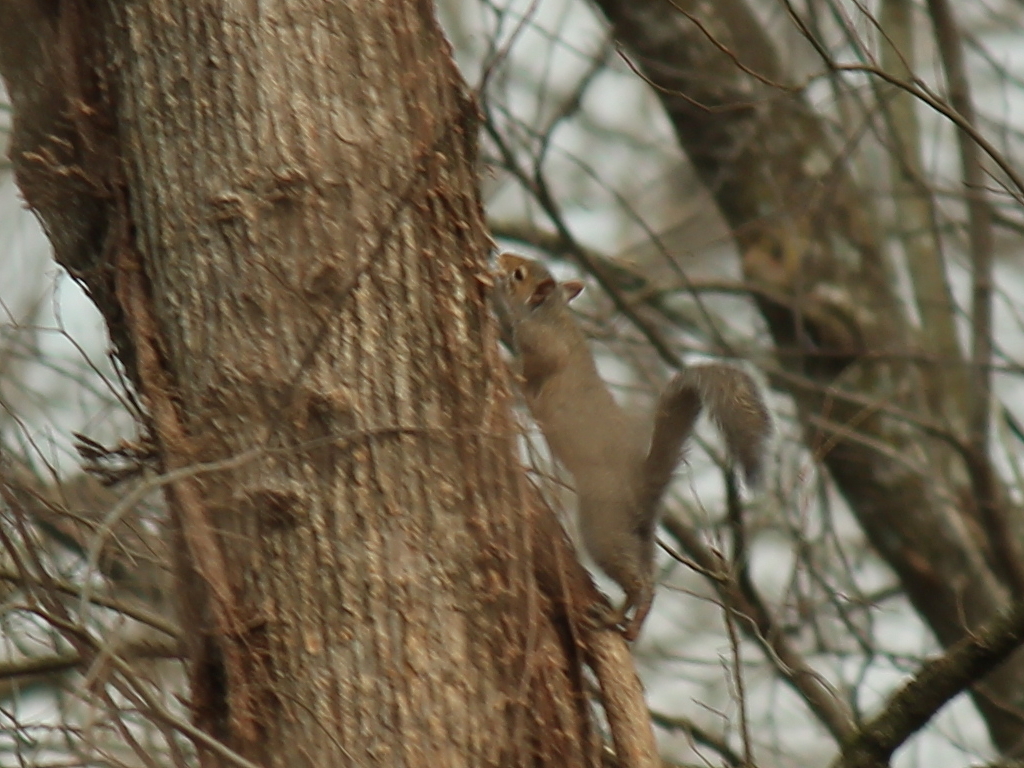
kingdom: Animalia
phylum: Chordata
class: Mammalia
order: Rodentia
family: Sciuridae
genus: Sciurus
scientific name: Sciurus carolinensis
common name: Eastern gray squirrel
